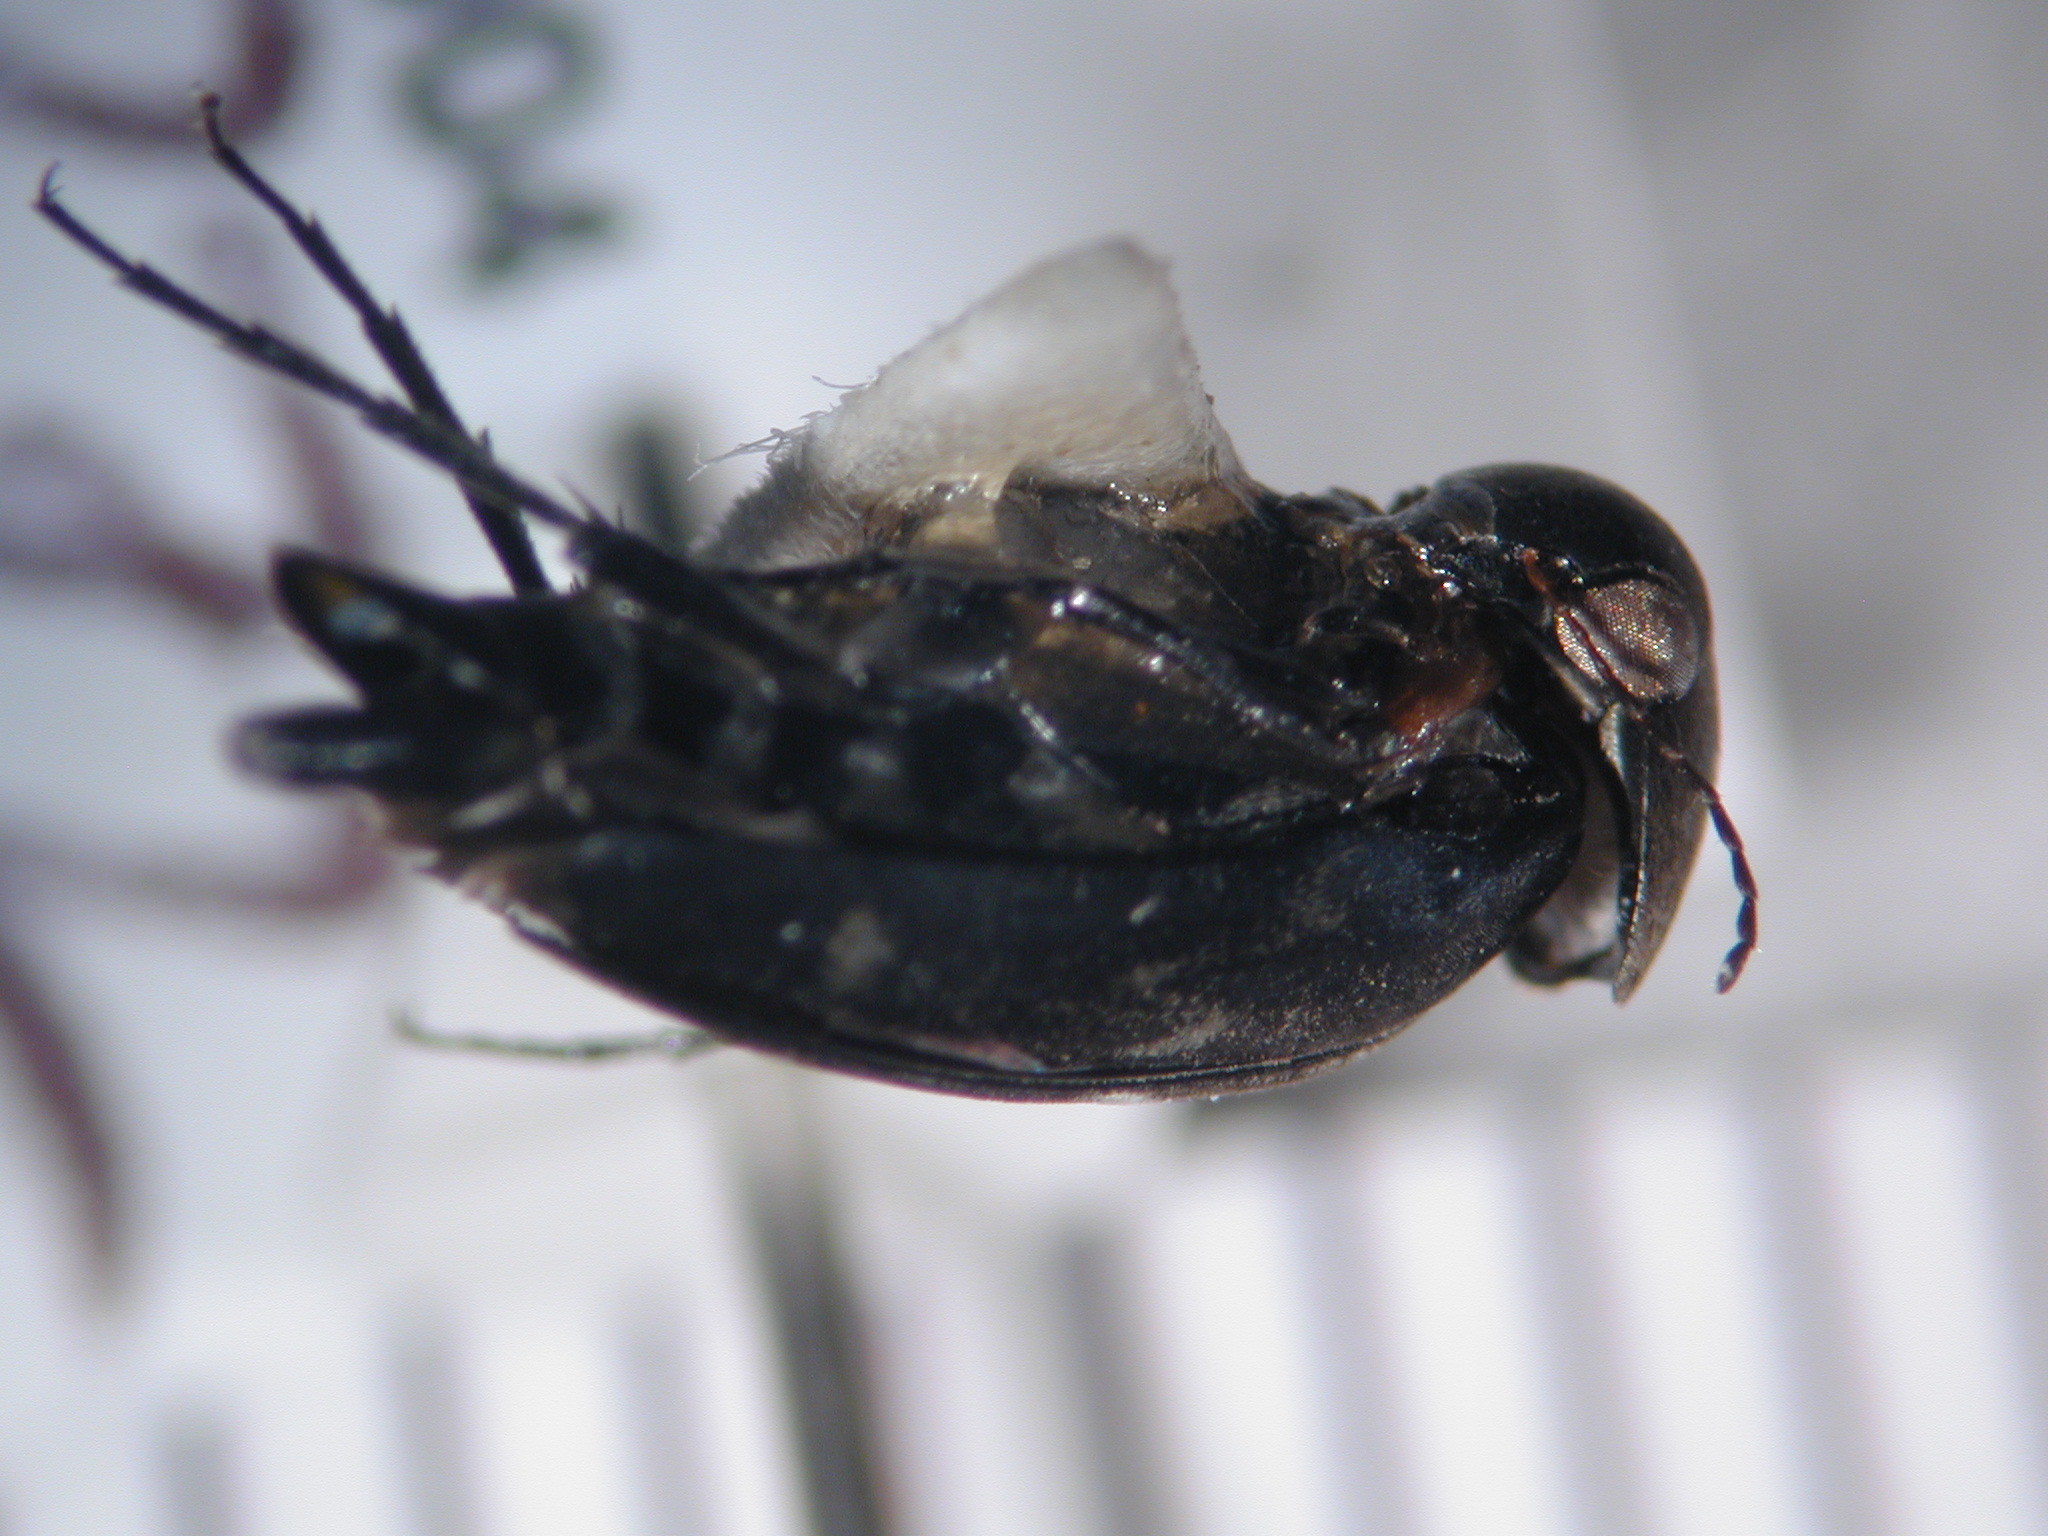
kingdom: Animalia
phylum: Arthropoda
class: Insecta
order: Coleoptera
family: Mordellidae
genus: Mordella
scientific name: Mordella aculeata
